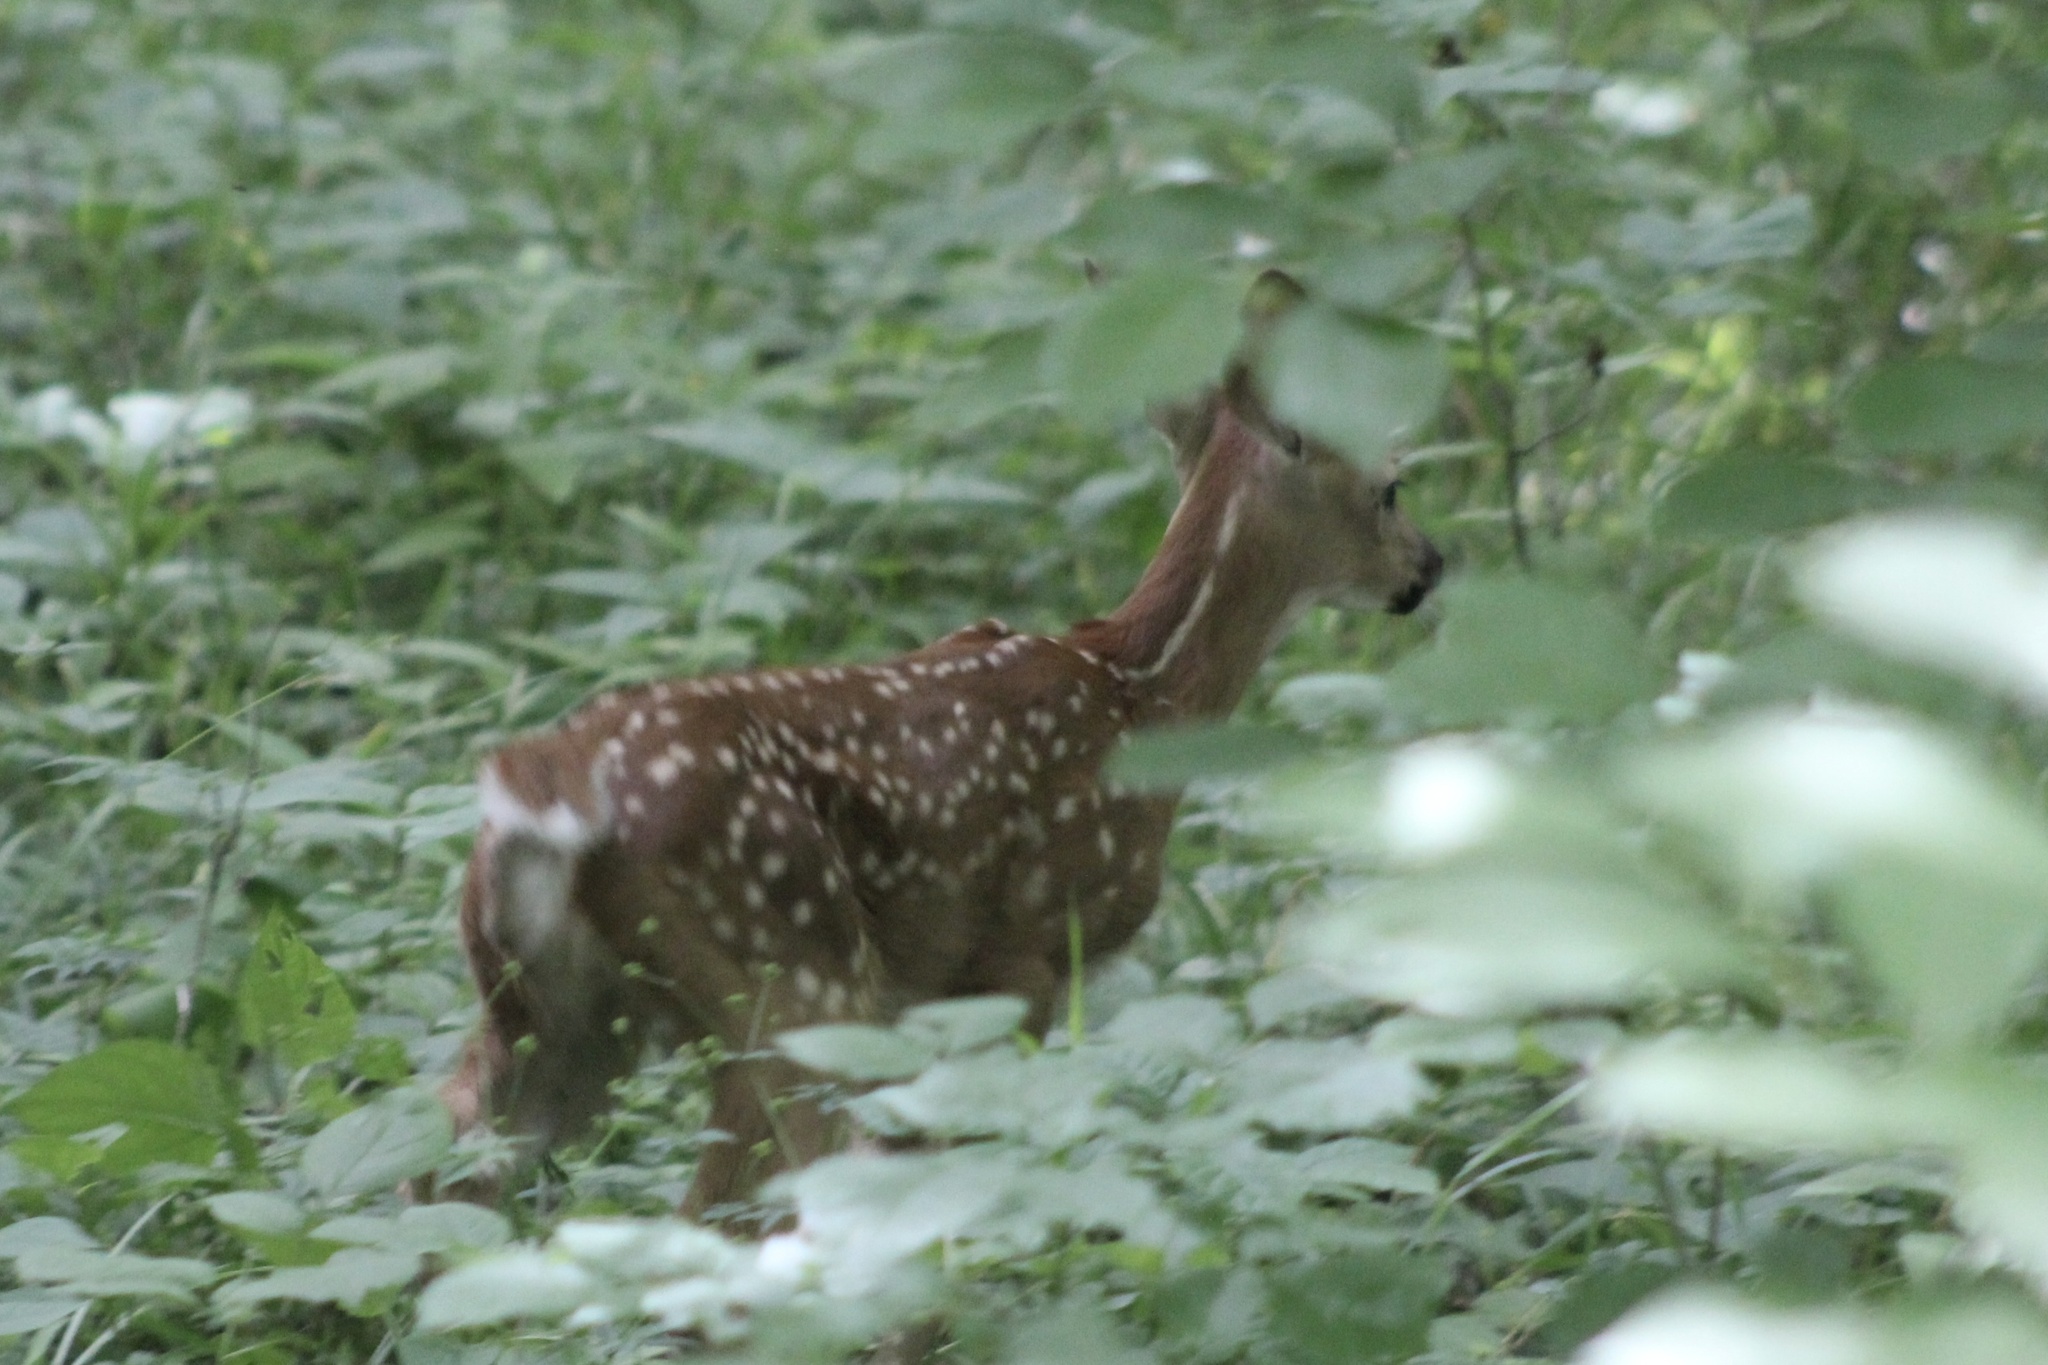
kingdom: Animalia
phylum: Chordata
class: Mammalia
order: Artiodactyla
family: Cervidae
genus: Odocoileus
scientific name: Odocoileus virginianus
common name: White-tailed deer
